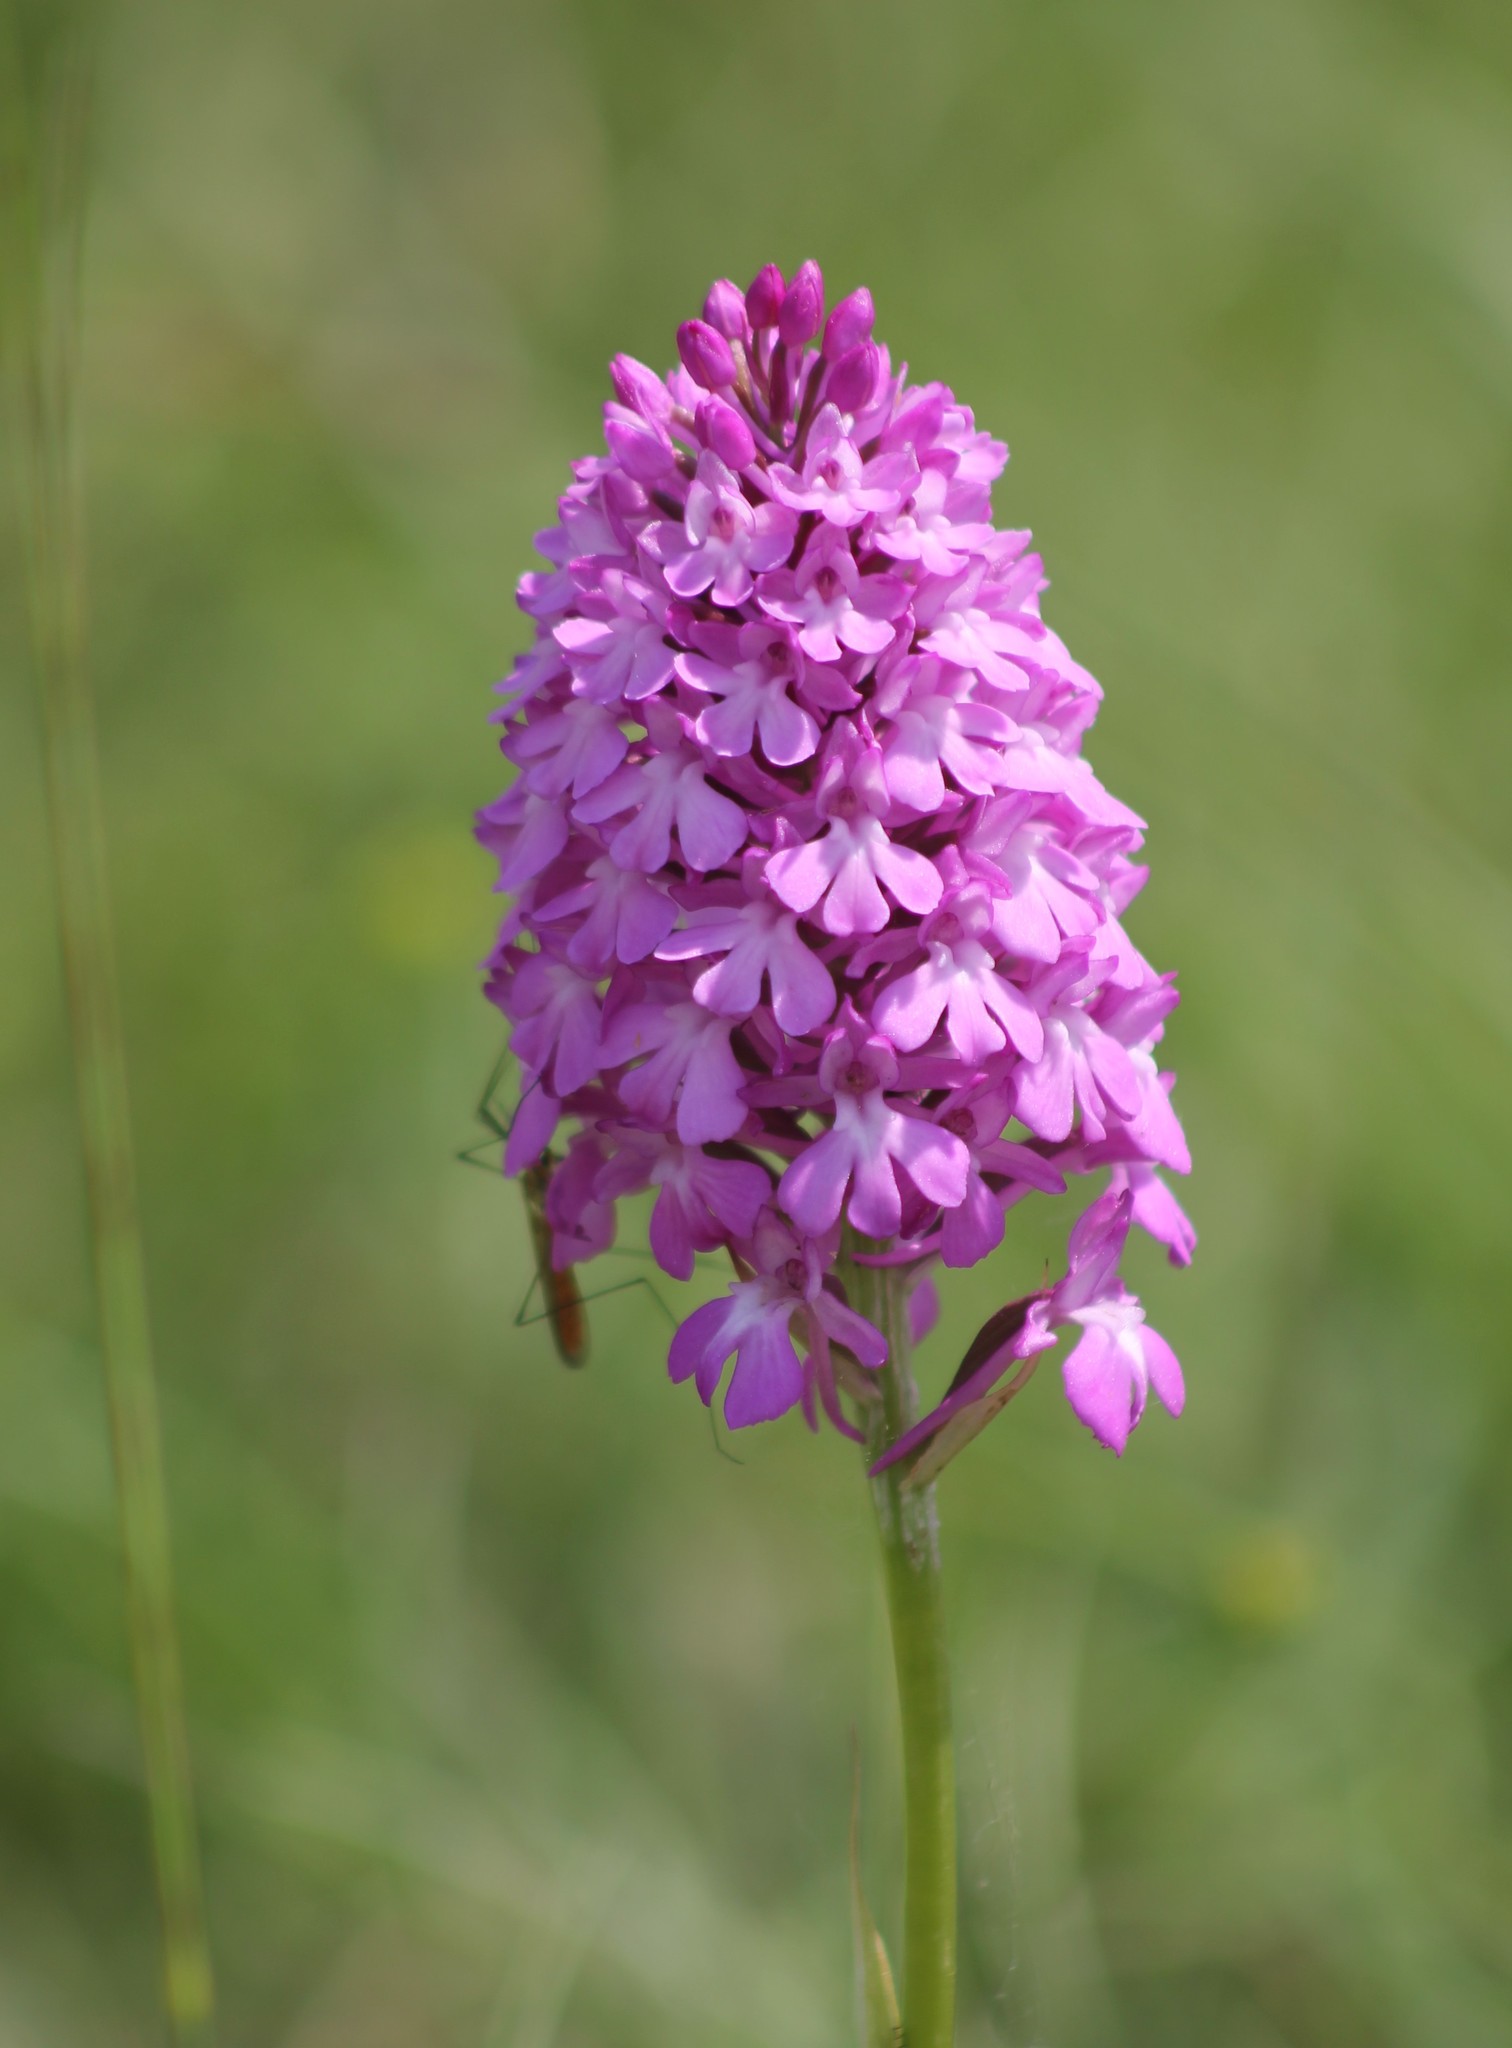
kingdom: Plantae
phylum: Tracheophyta
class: Liliopsida
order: Asparagales
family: Orchidaceae
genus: Anacamptis
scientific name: Anacamptis pyramidalis
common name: Pyramidal orchid
